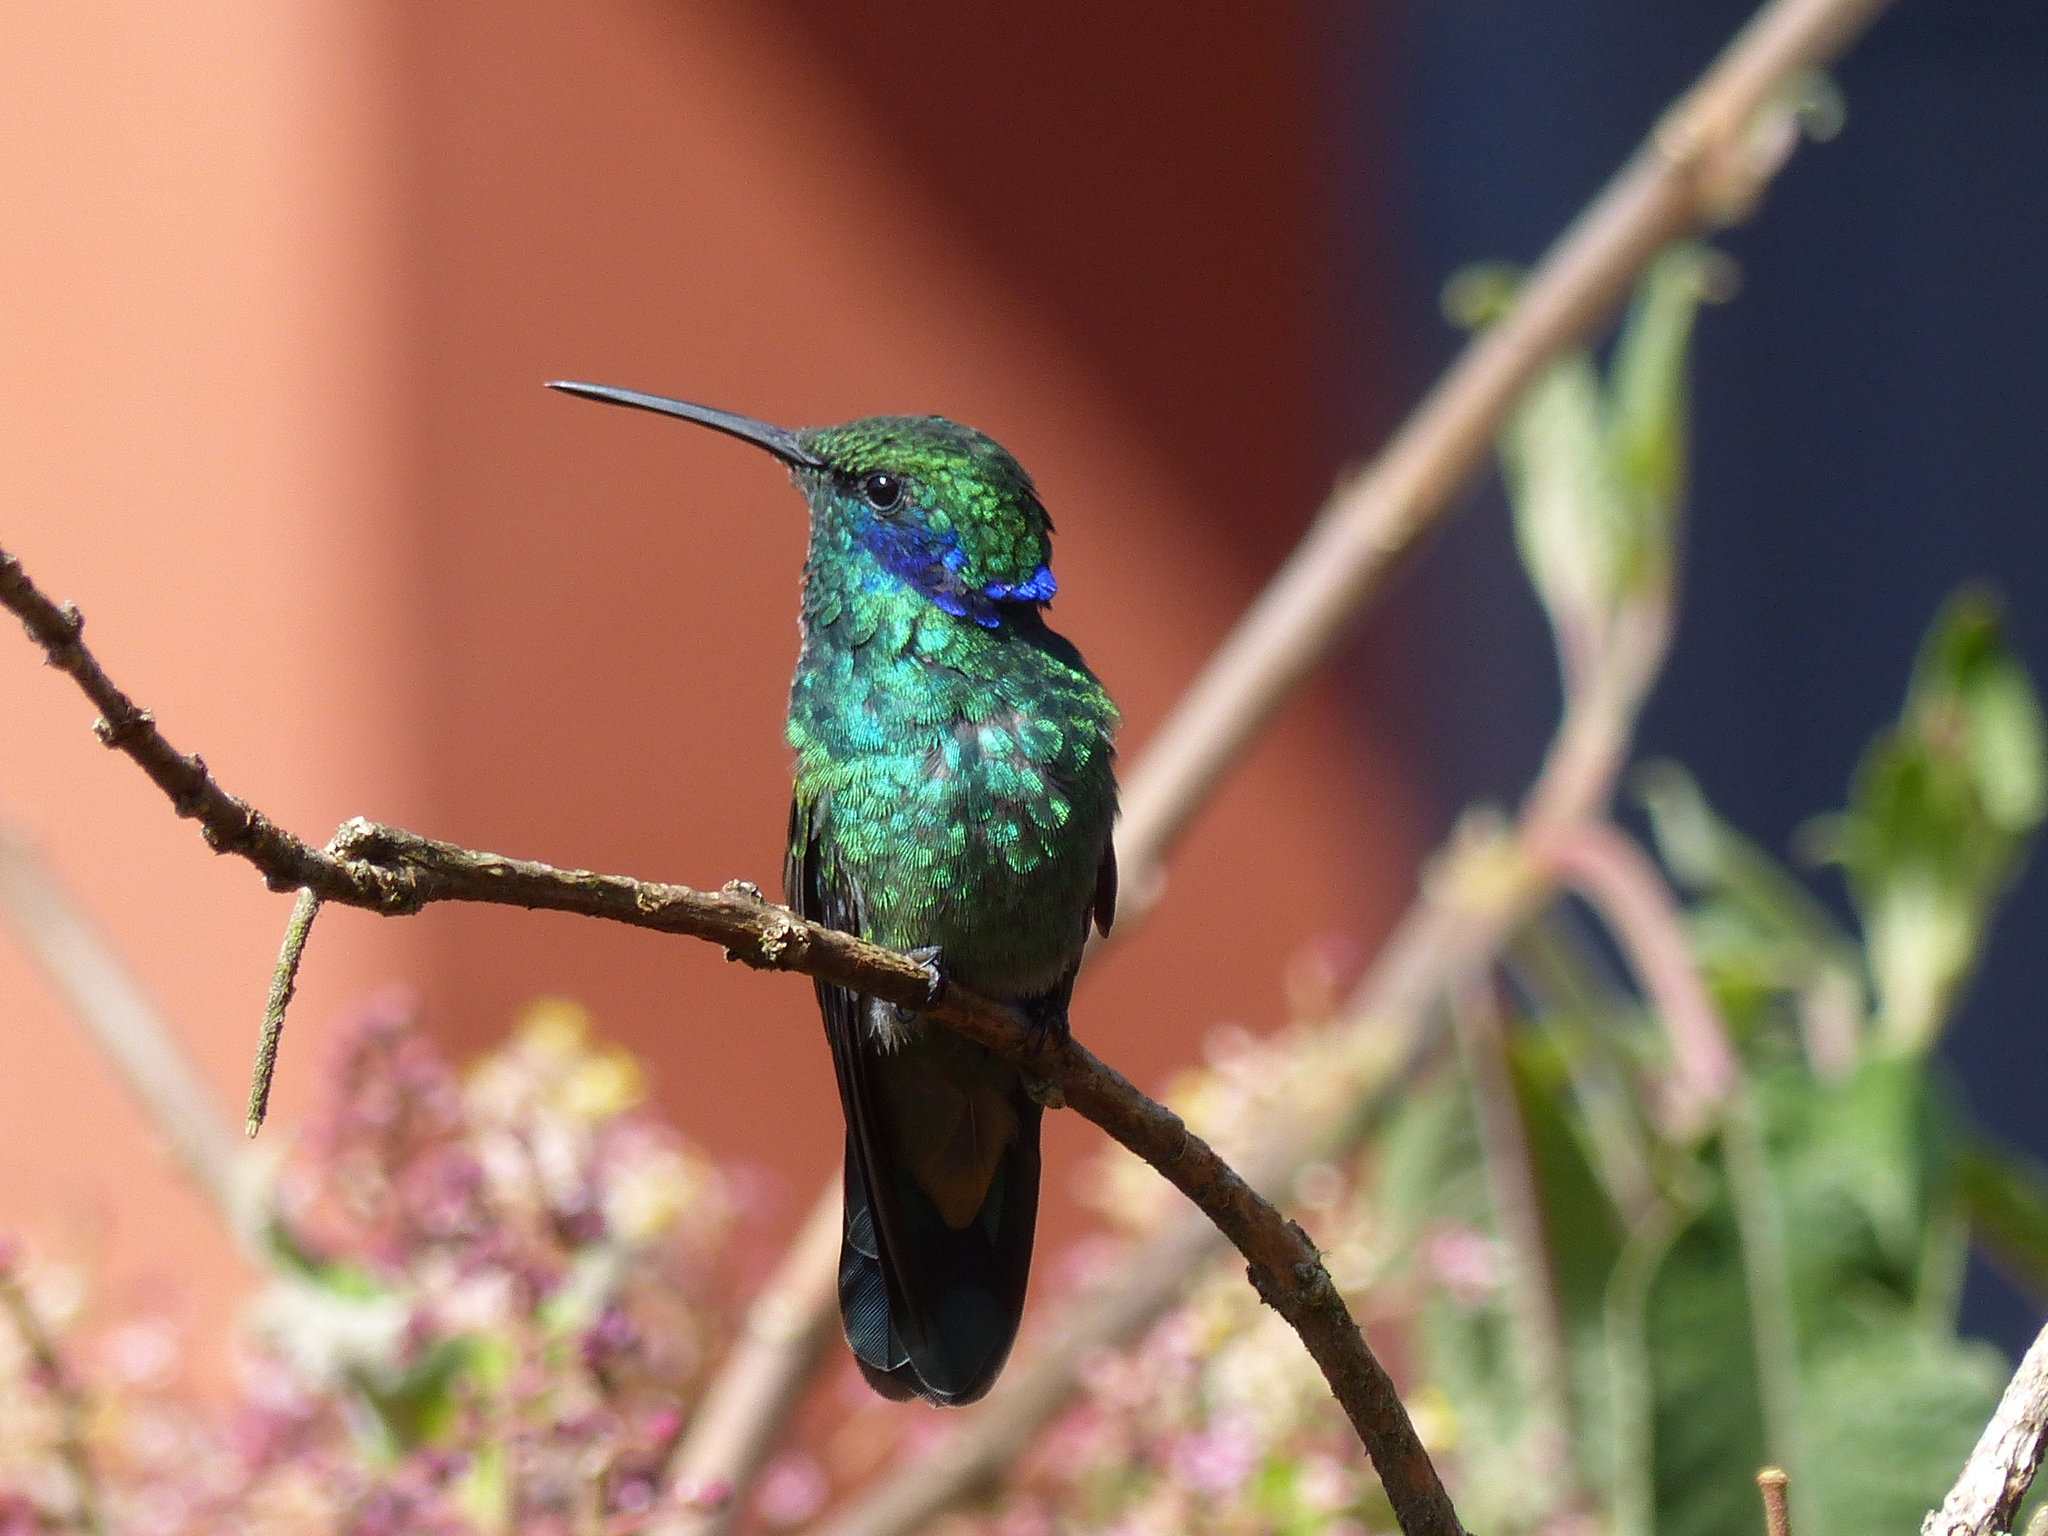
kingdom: Animalia
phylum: Chordata
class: Aves
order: Apodiformes
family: Trochilidae
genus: Colibri
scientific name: Colibri cyanotus
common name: Lesser violetear
